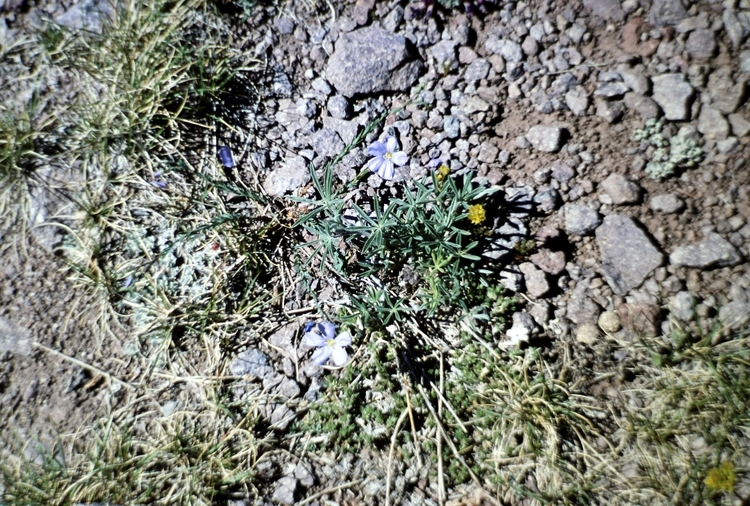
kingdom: Plantae
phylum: Tracheophyta
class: Magnoliopsida
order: Malpighiales
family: Linaceae
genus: Linum
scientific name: Linum lewisii
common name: Prairie flax
